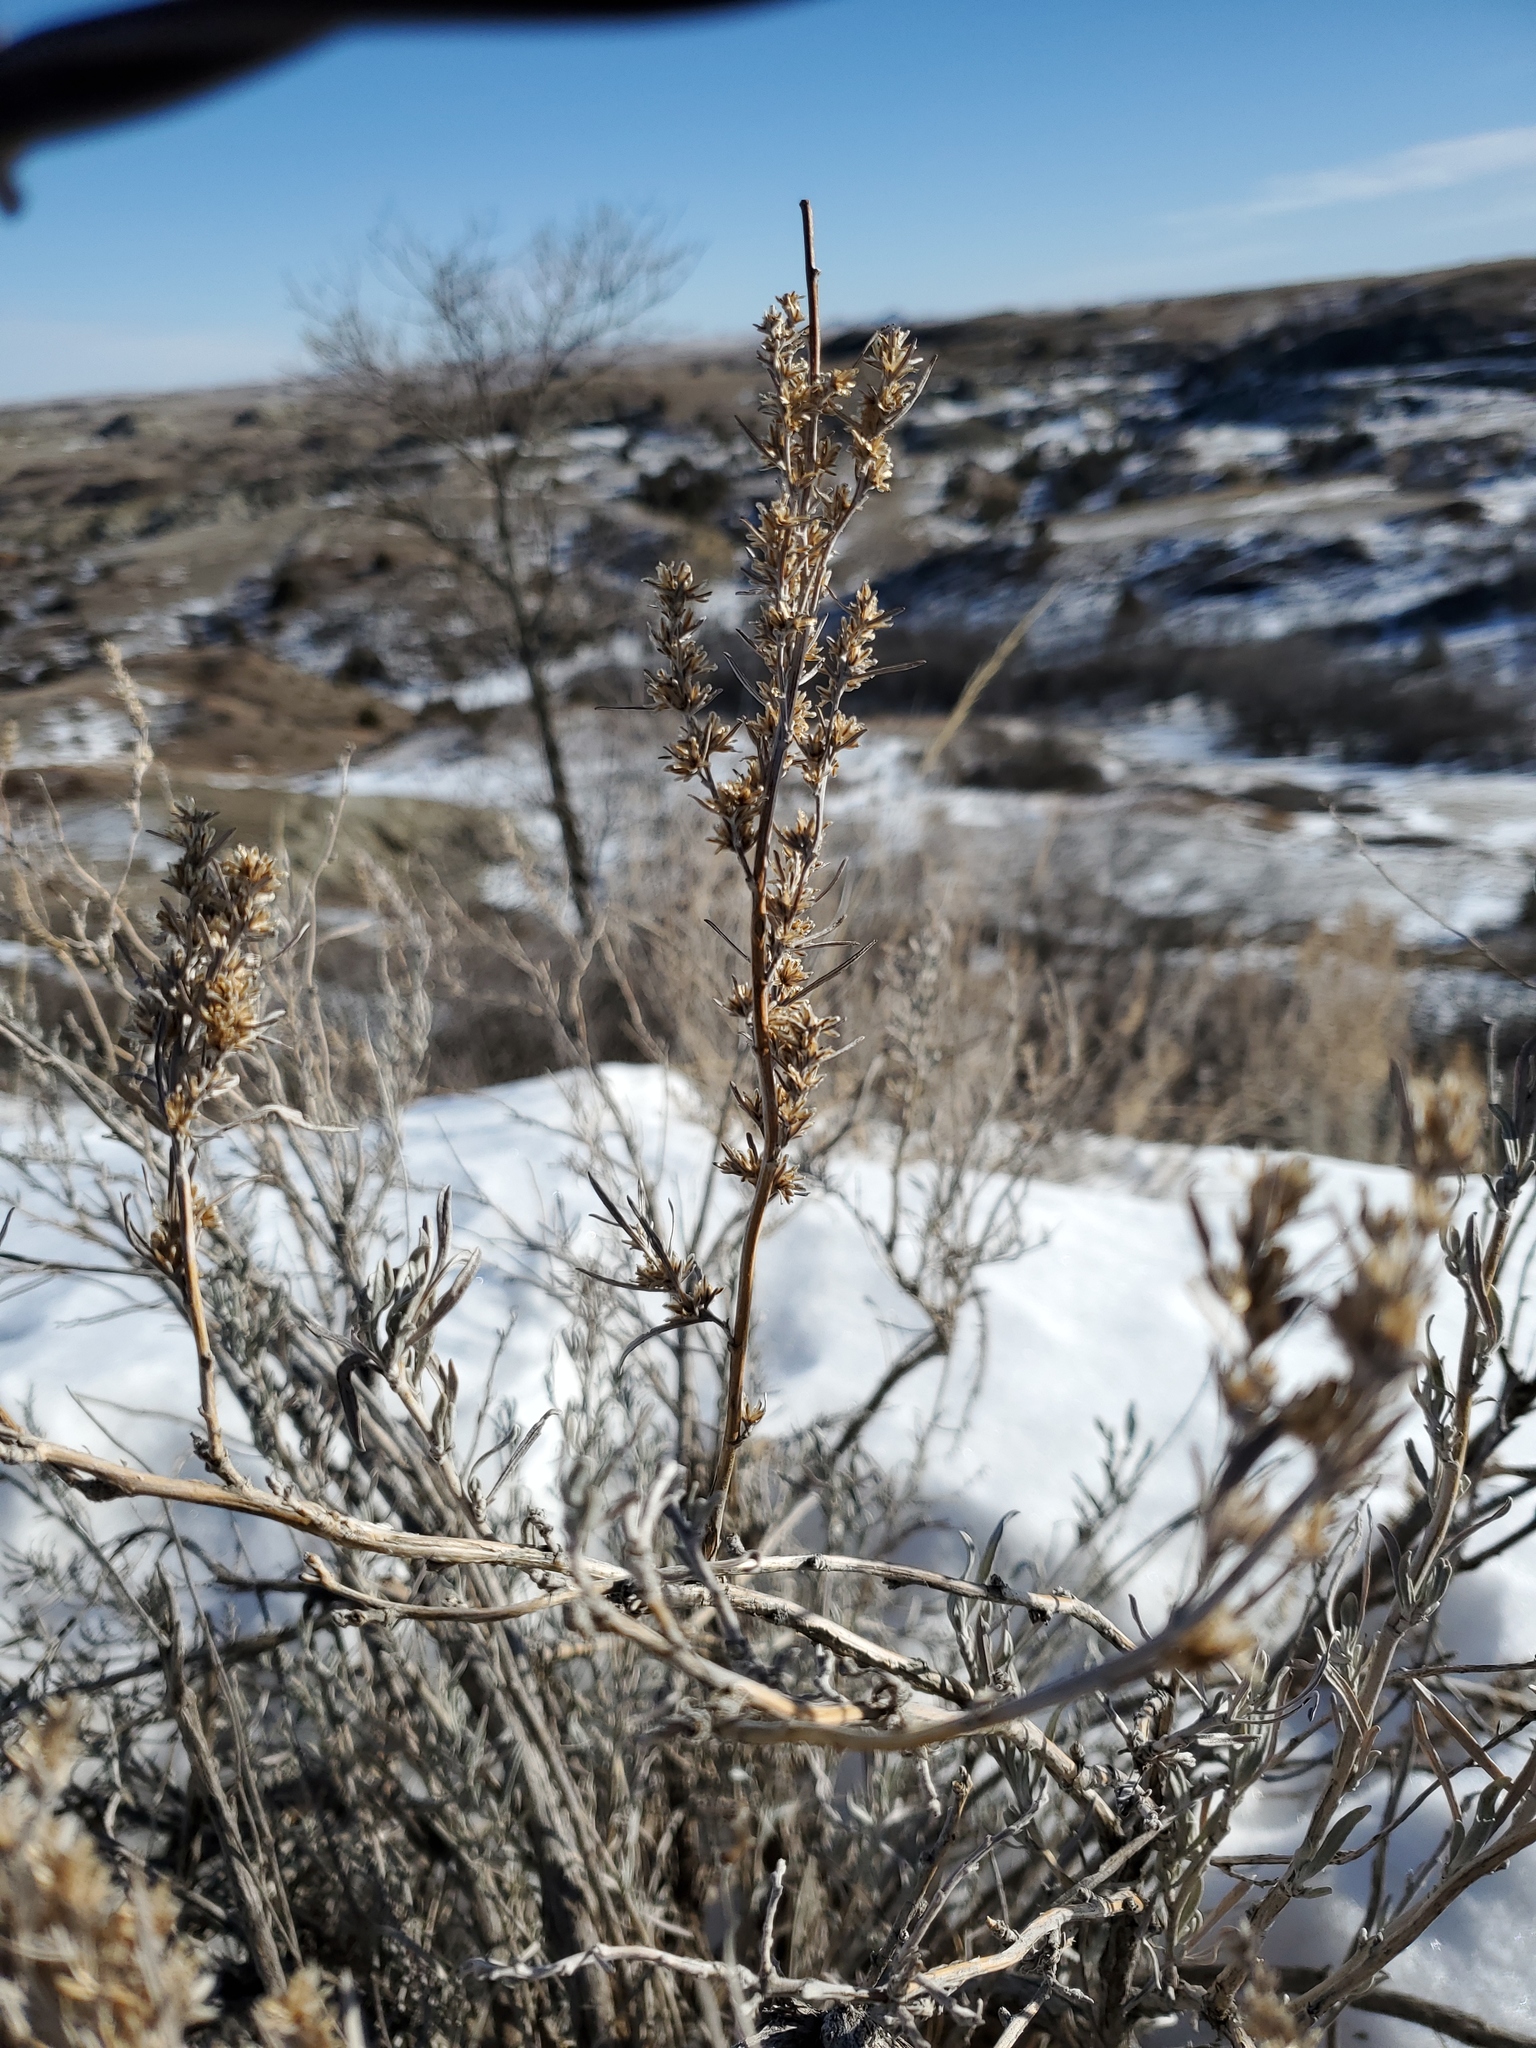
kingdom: Plantae
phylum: Tracheophyta
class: Magnoliopsida
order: Asterales
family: Asteraceae
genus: Artemisia
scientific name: Artemisia cana
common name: Silver sagebrush
